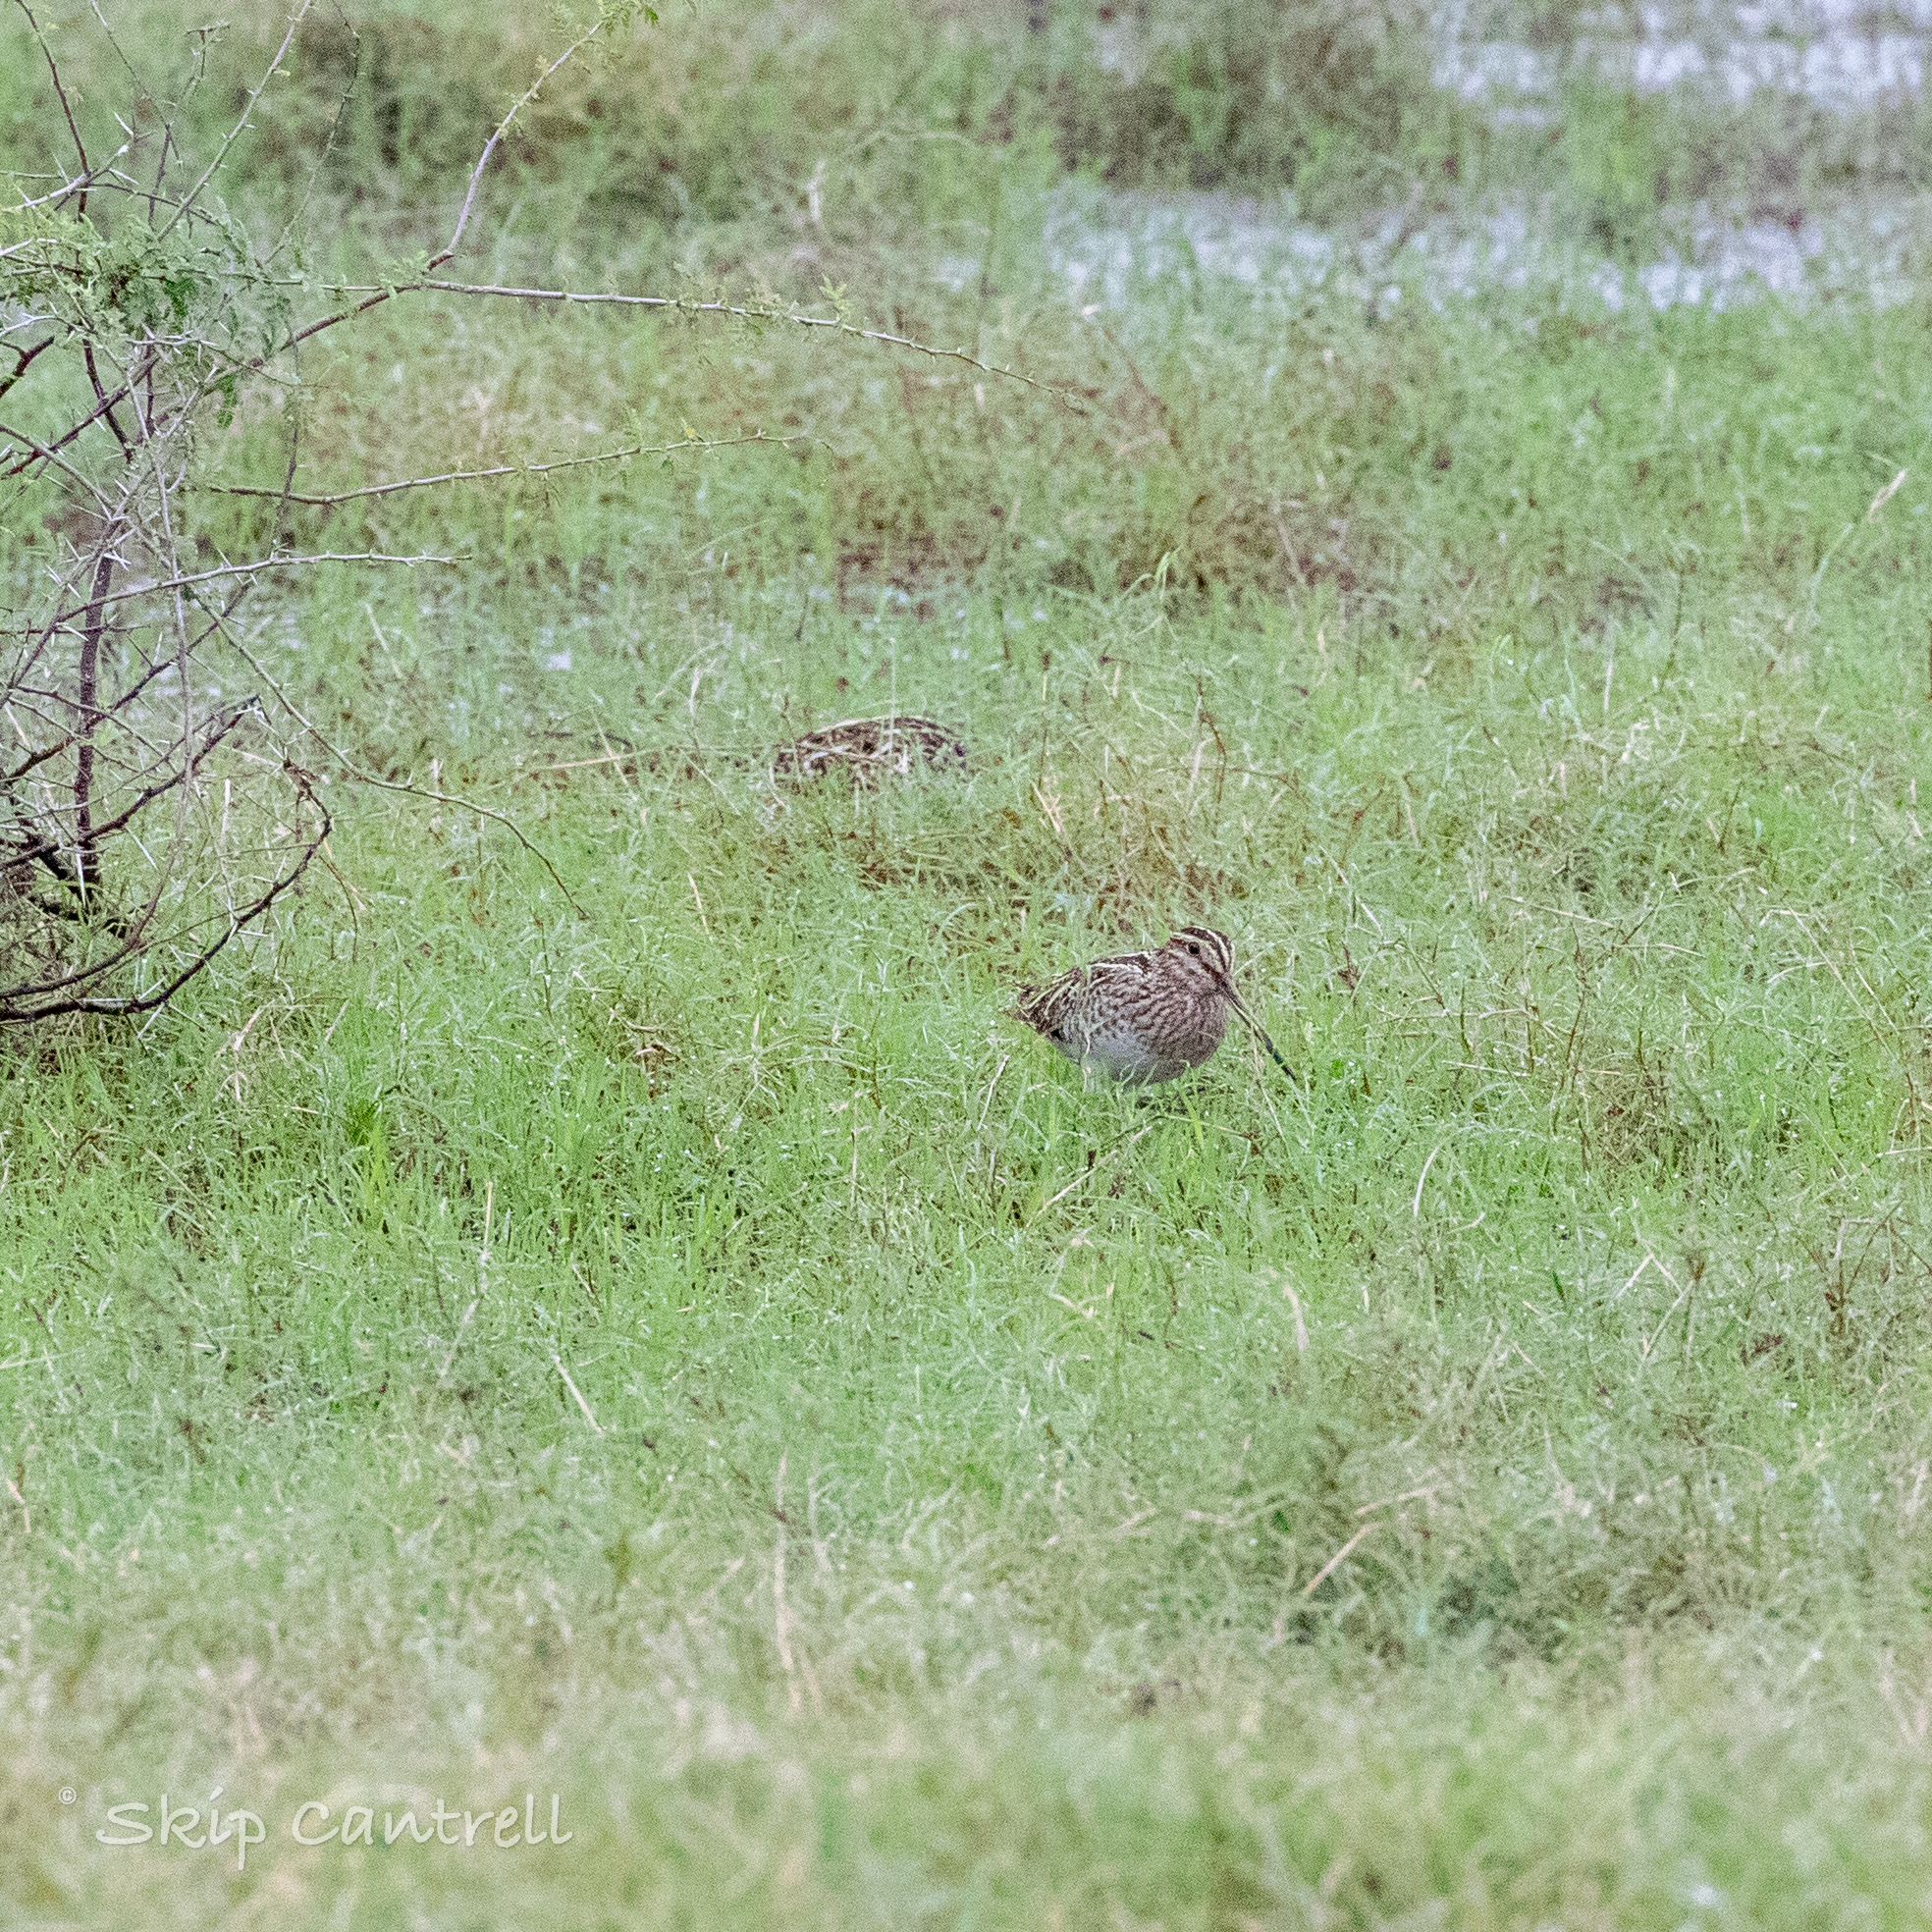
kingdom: Animalia
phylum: Chordata
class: Aves
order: Charadriiformes
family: Scolopacidae
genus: Gallinago
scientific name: Gallinago delicata
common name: Wilson's snipe
